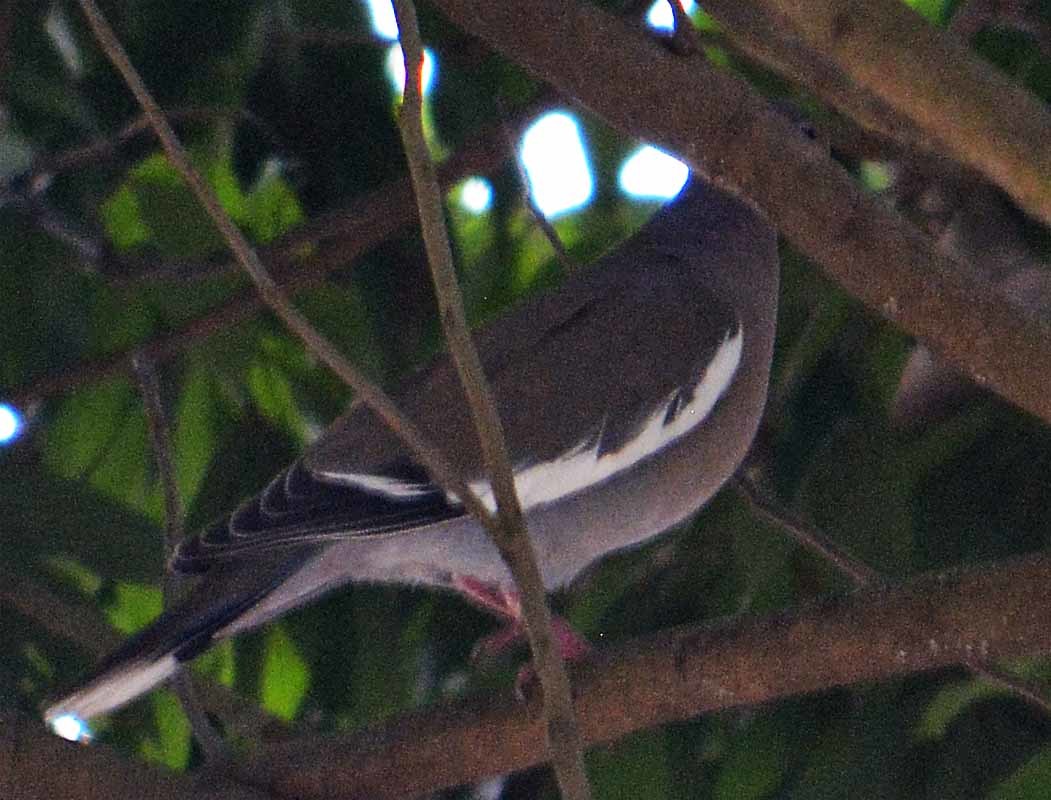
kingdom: Animalia
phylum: Chordata
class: Aves
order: Columbiformes
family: Columbidae
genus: Zenaida
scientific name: Zenaida asiatica
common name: White-winged dove
